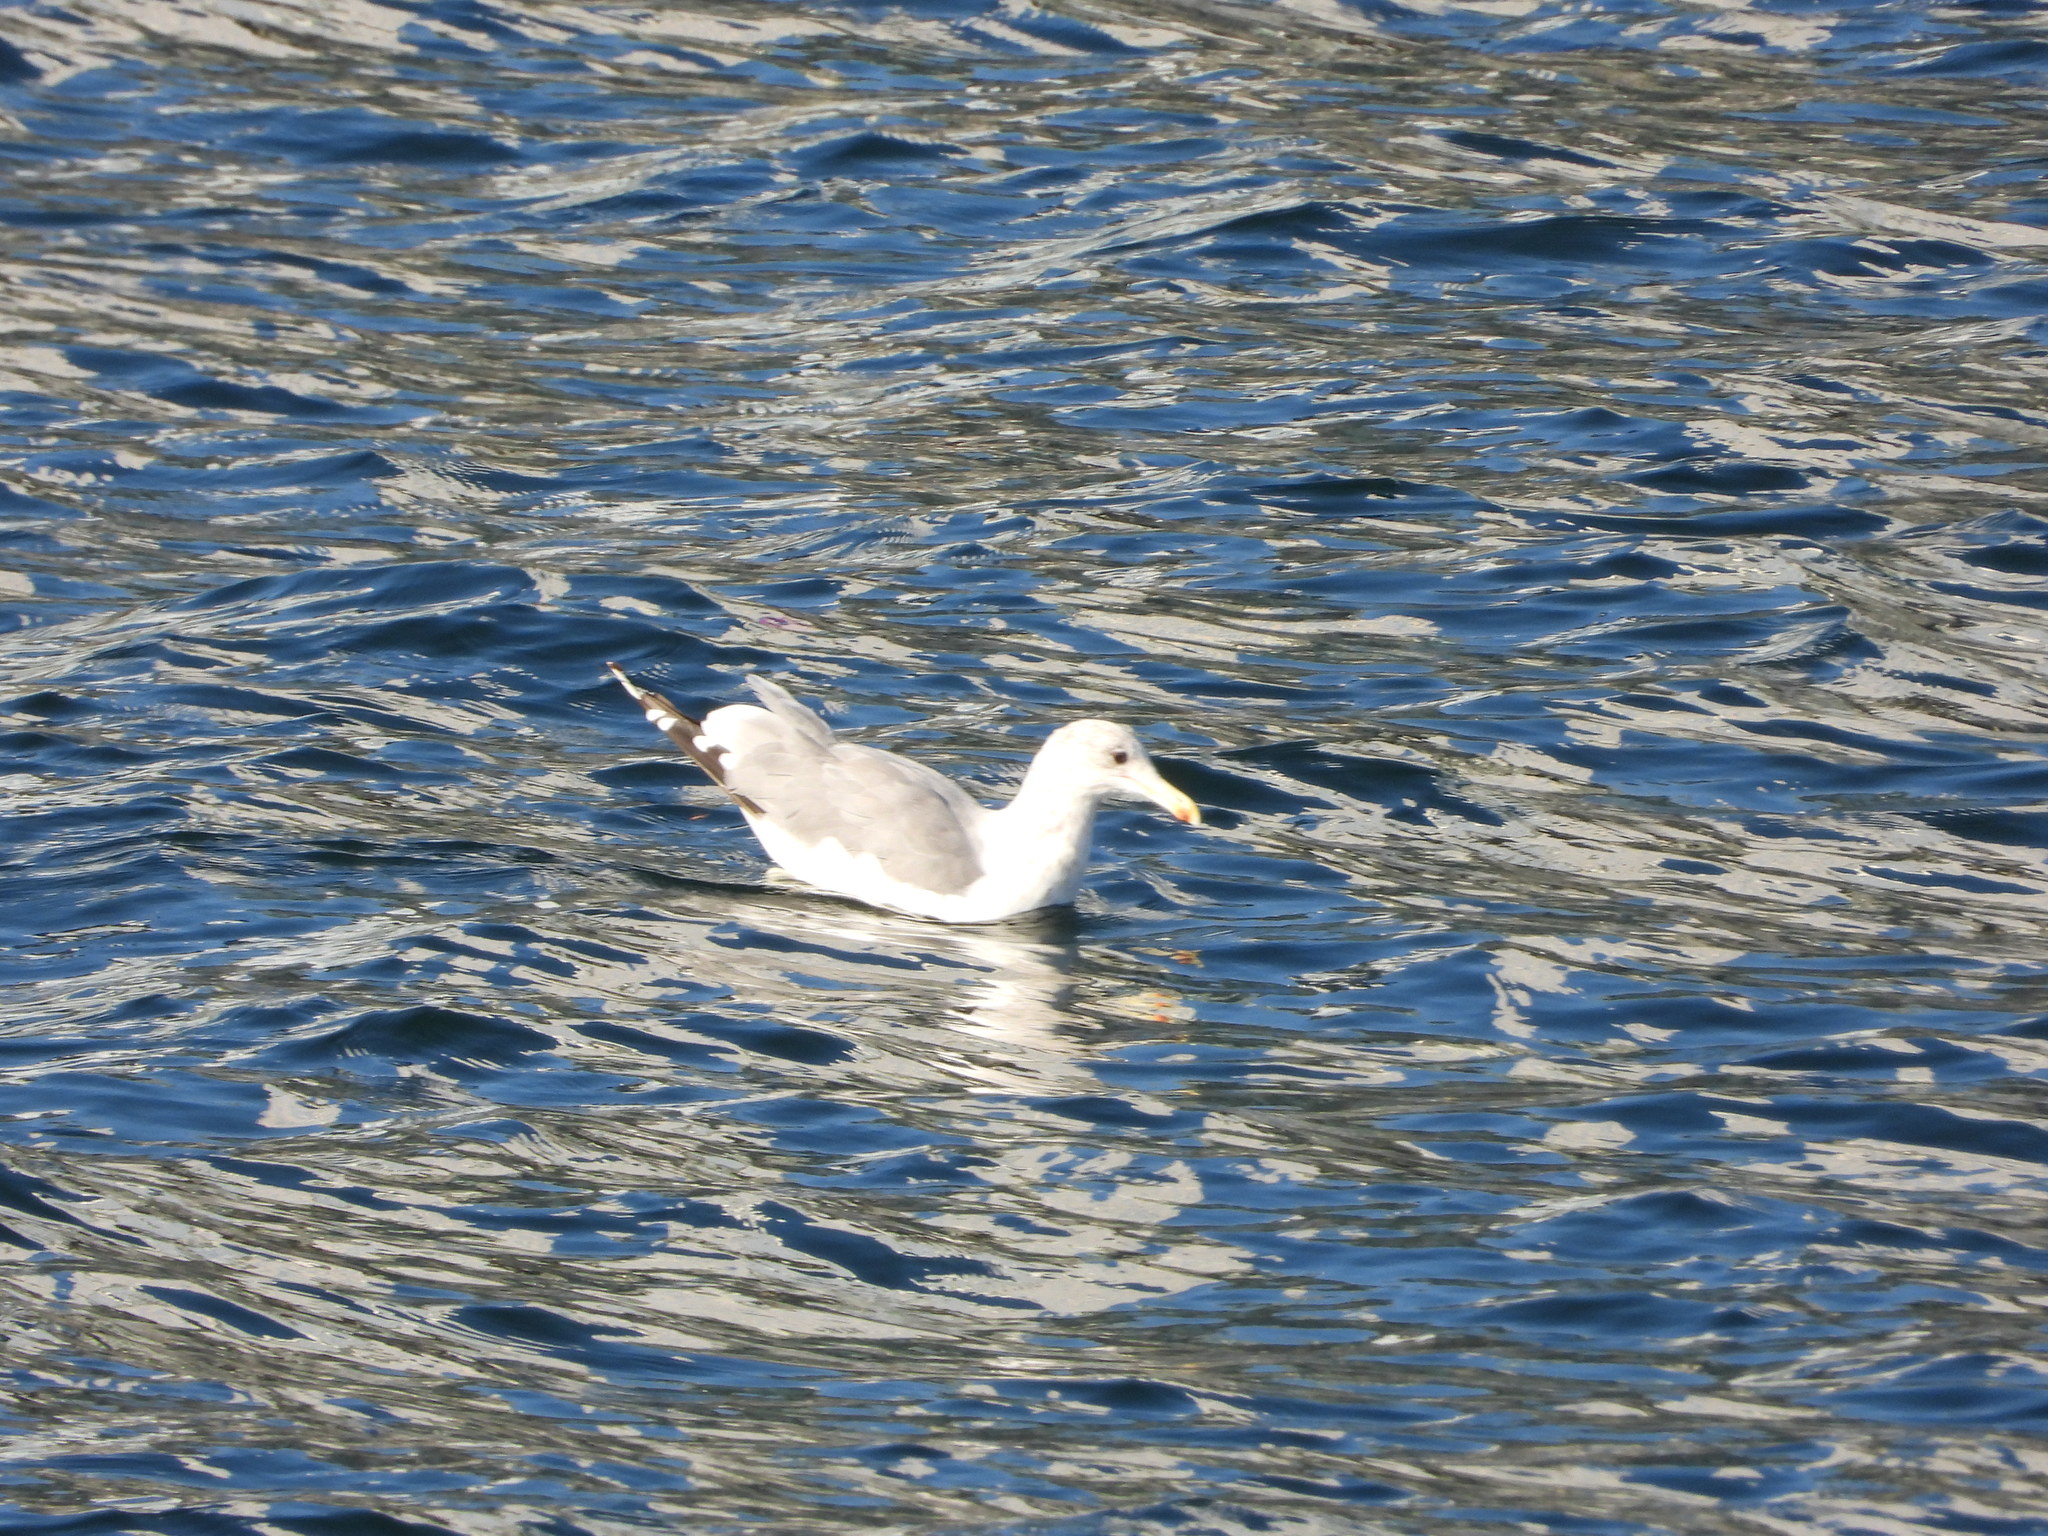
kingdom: Animalia
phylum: Chordata
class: Aves
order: Charadriiformes
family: Laridae
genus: Larus
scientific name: Larus
